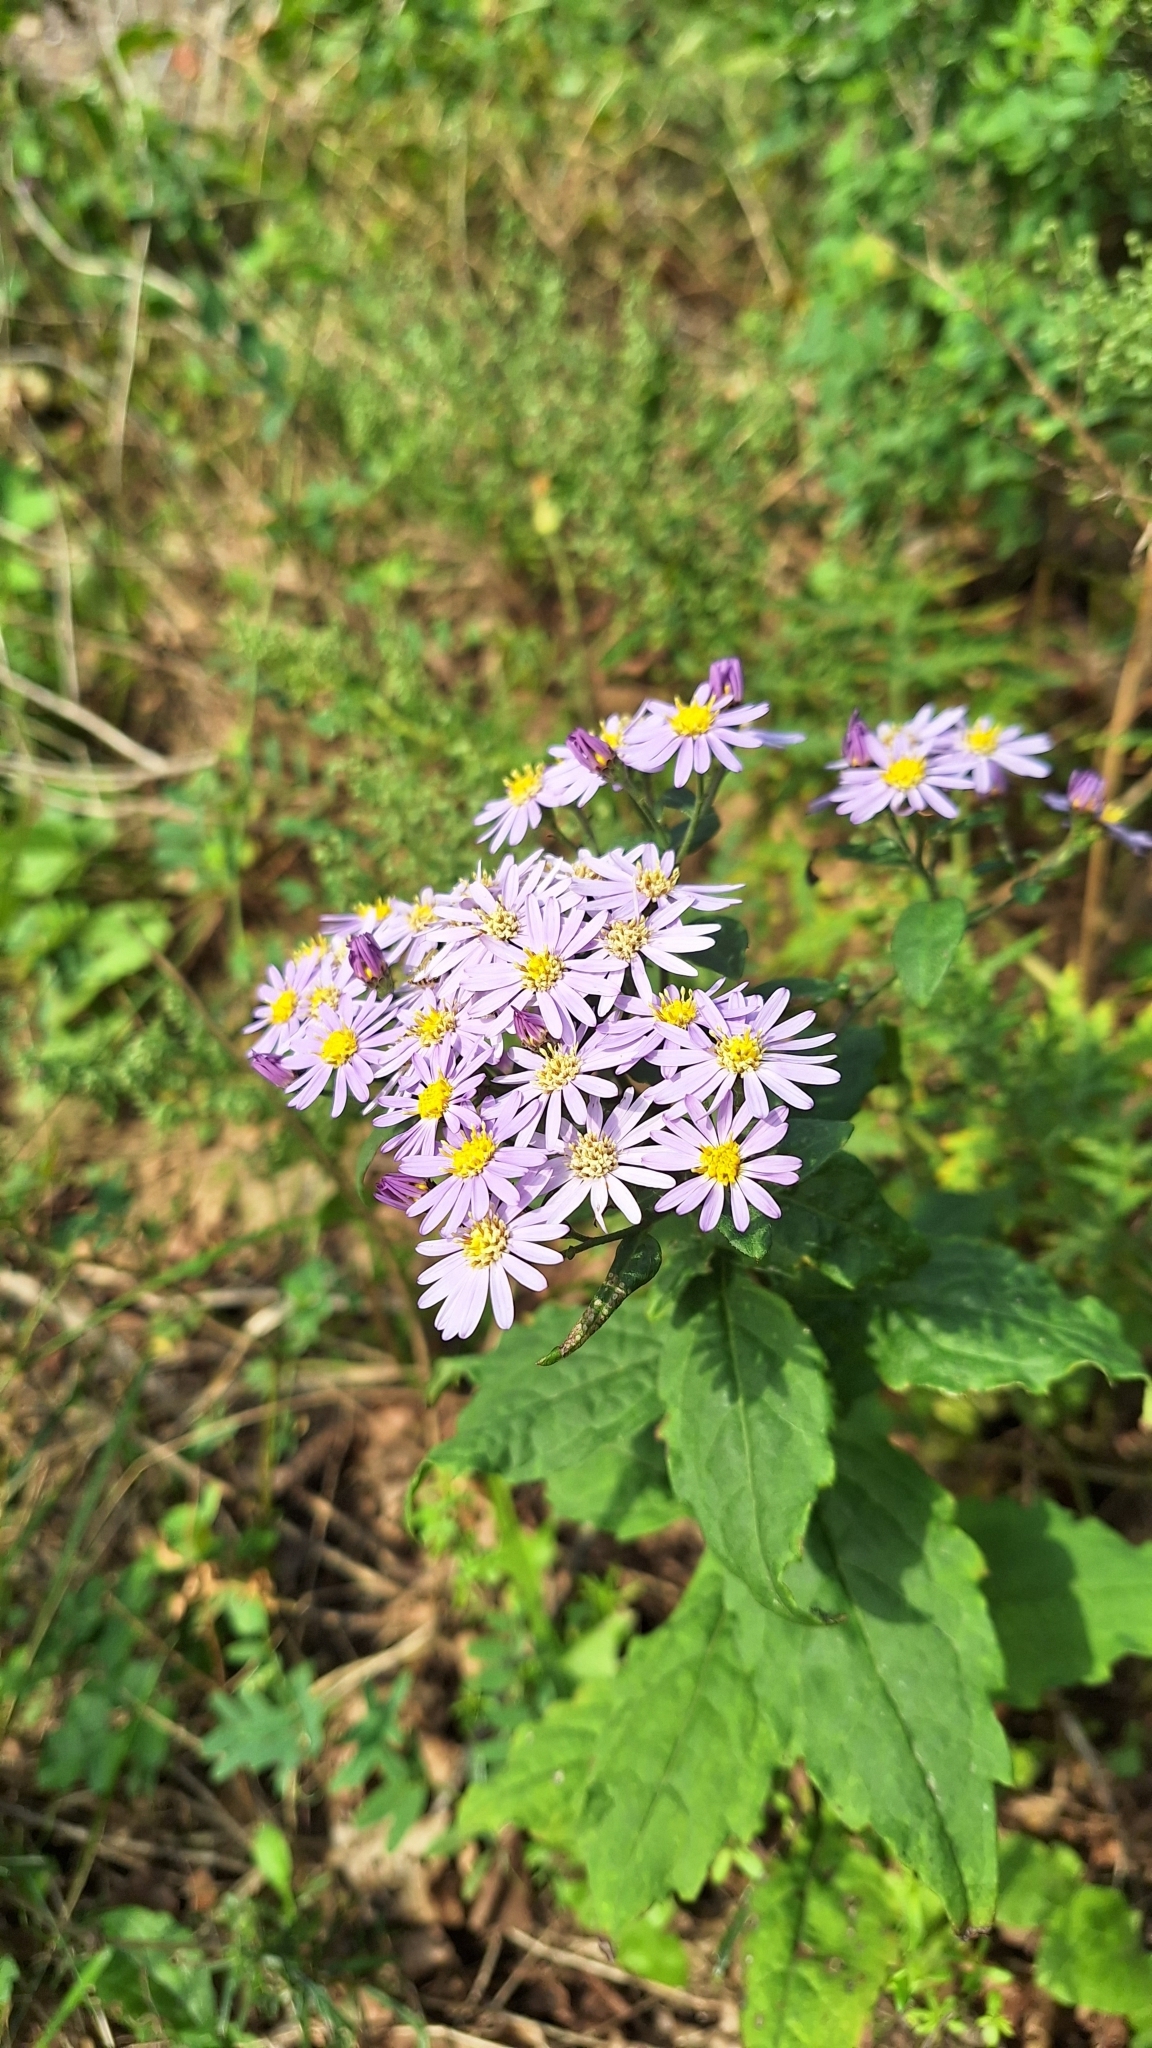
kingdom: Plantae
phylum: Tracheophyta
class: Magnoliopsida
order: Asterales
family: Asteraceae
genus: Aster
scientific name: Aster ageratoides
